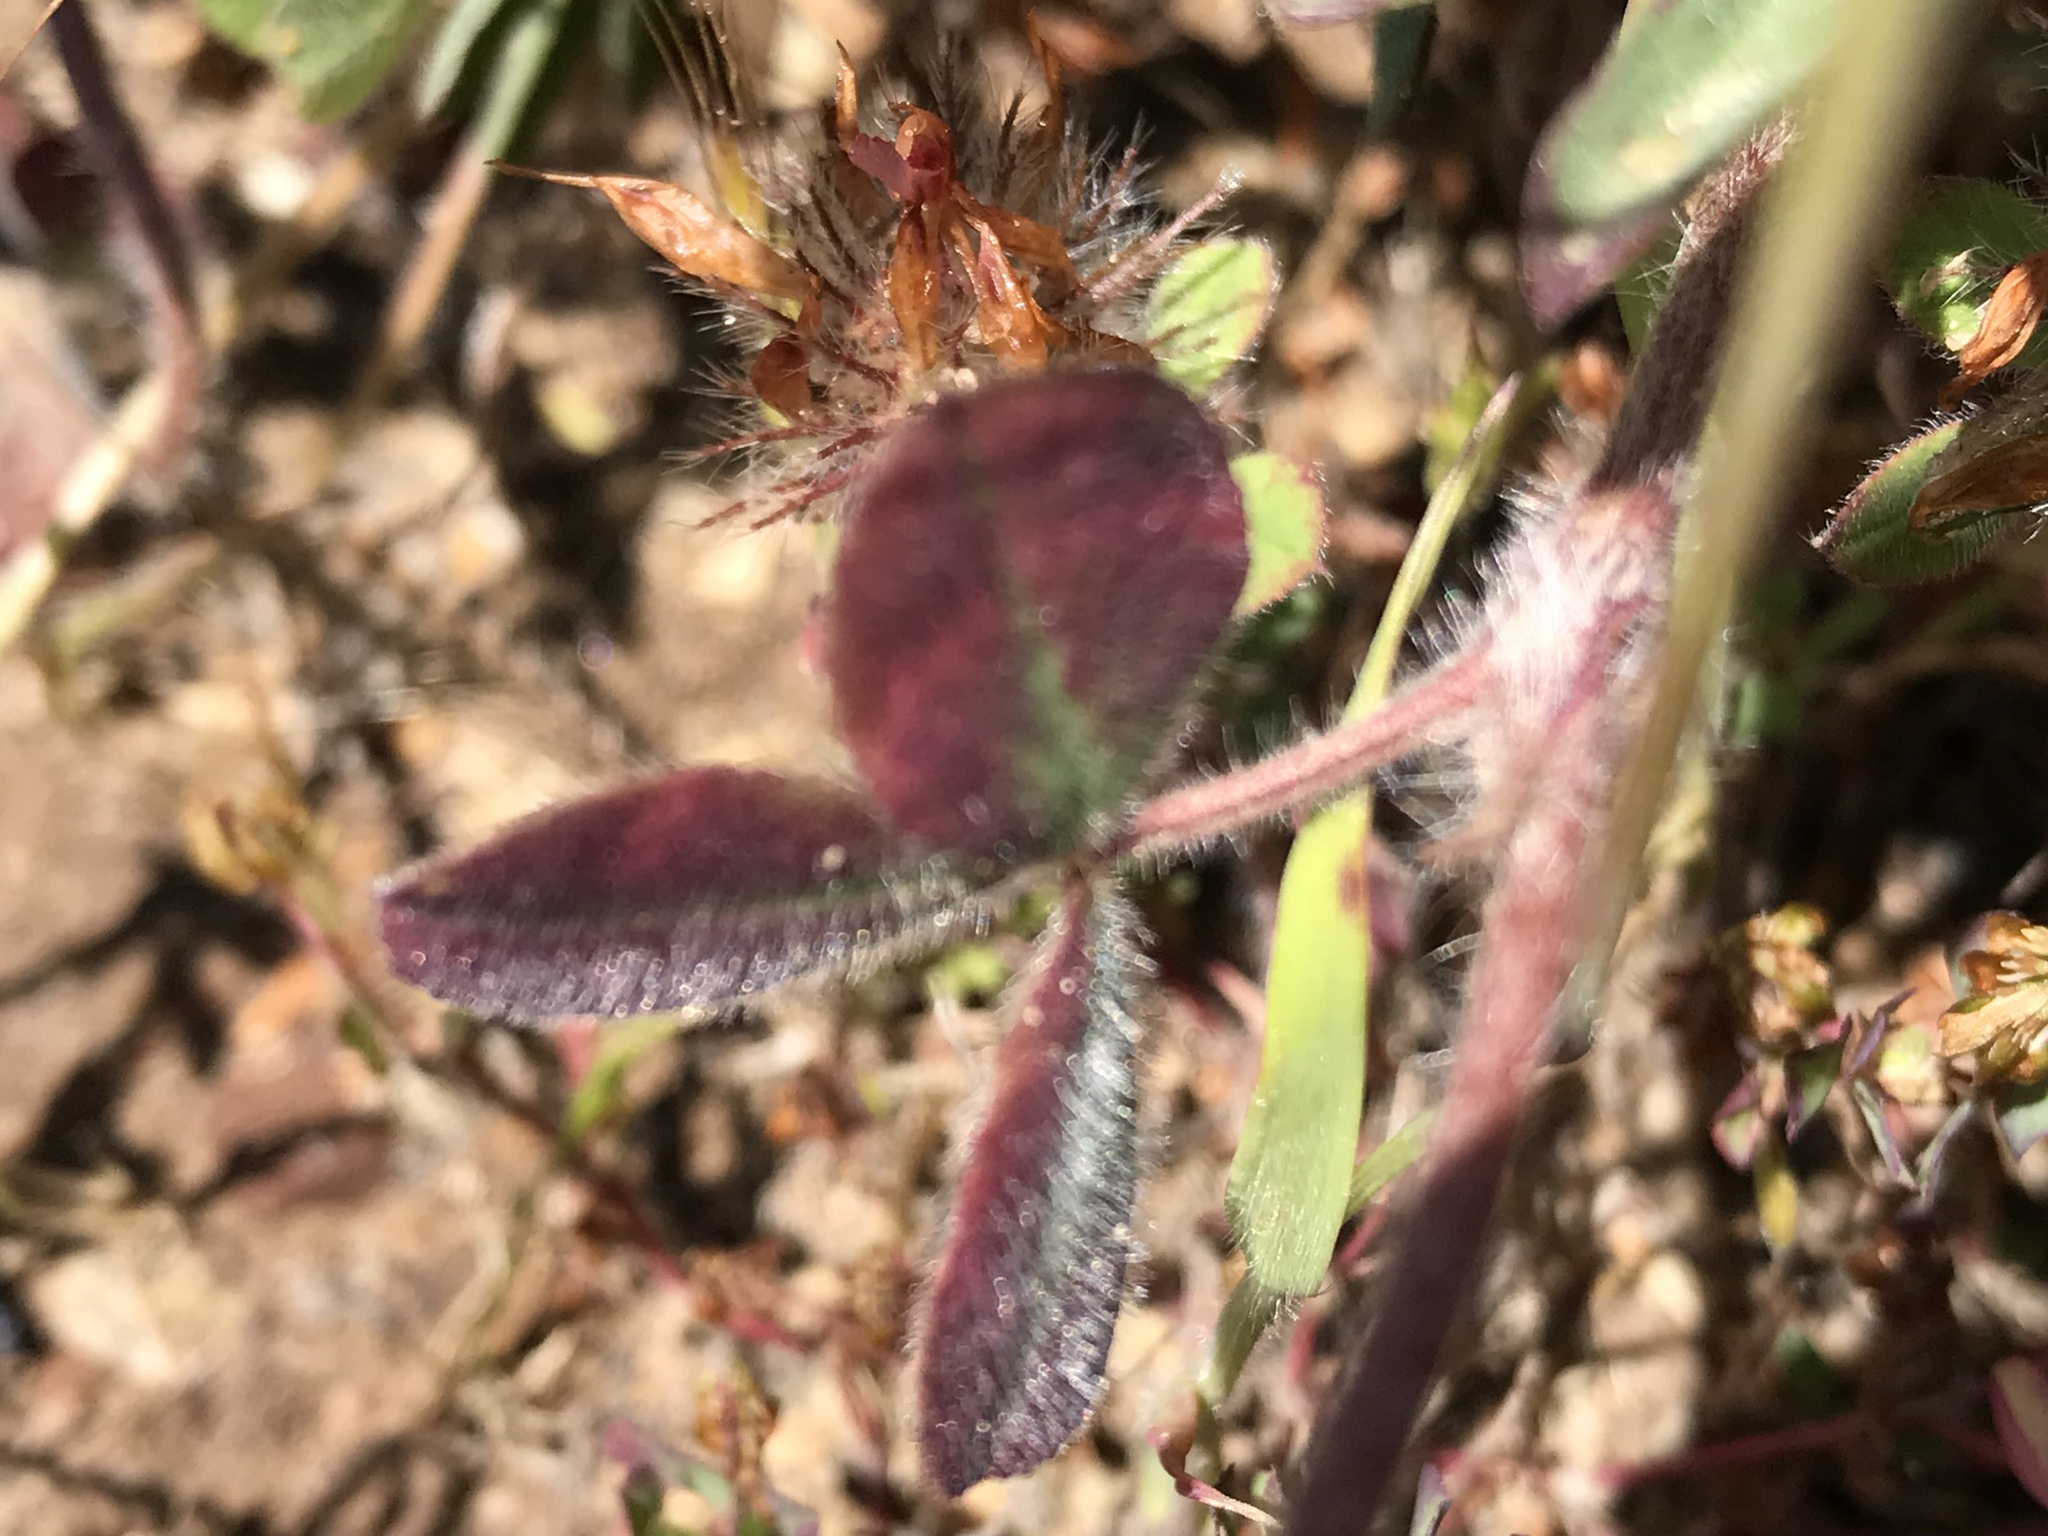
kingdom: Plantae
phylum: Tracheophyta
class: Magnoliopsida
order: Fabales
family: Fabaceae
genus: Trifolium
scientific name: Trifolium hirtum
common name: Rose clover
